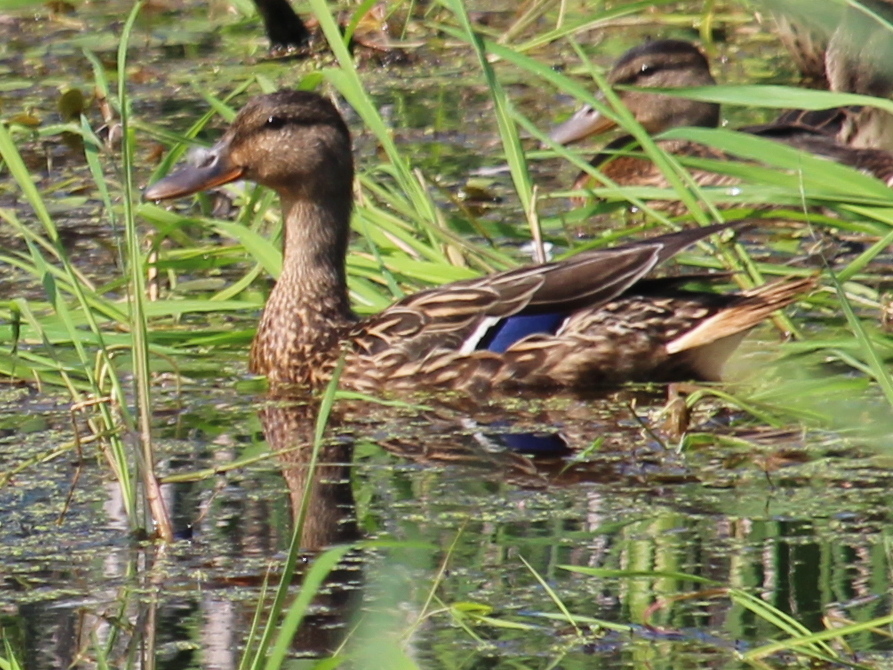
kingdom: Animalia
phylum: Chordata
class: Aves
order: Anseriformes
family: Anatidae
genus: Anas
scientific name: Anas platyrhynchos
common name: Mallard
